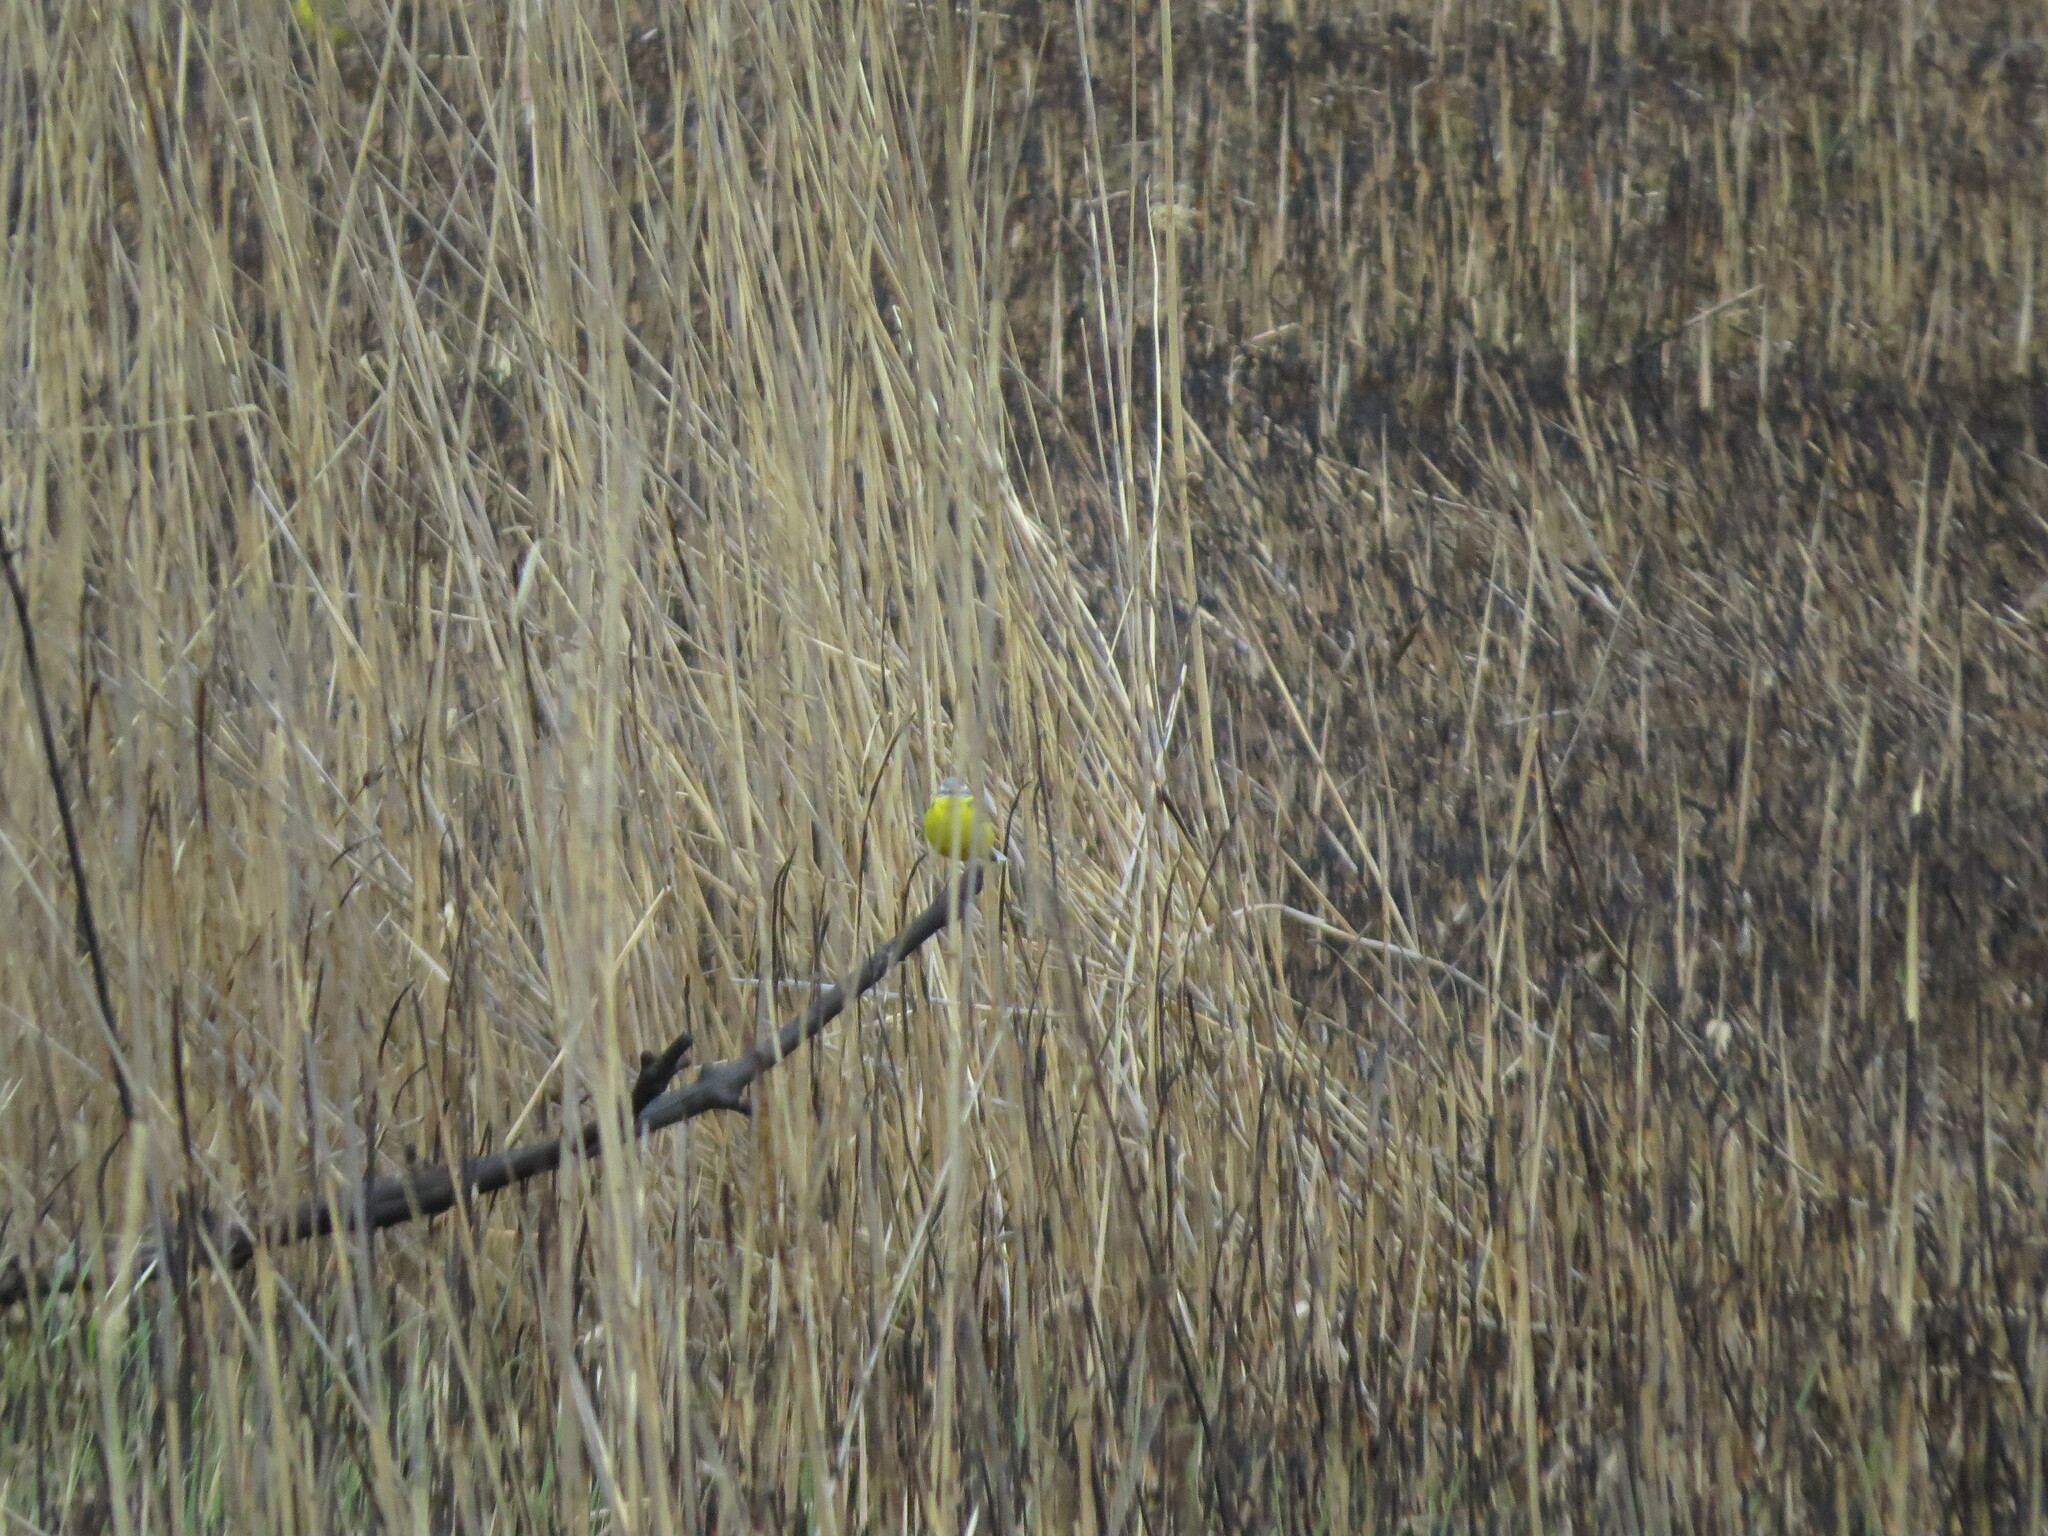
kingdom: Animalia
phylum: Chordata
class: Aves
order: Passeriformes
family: Motacillidae
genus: Motacilla
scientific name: Motacilla flava
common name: Western yellow wagtail
